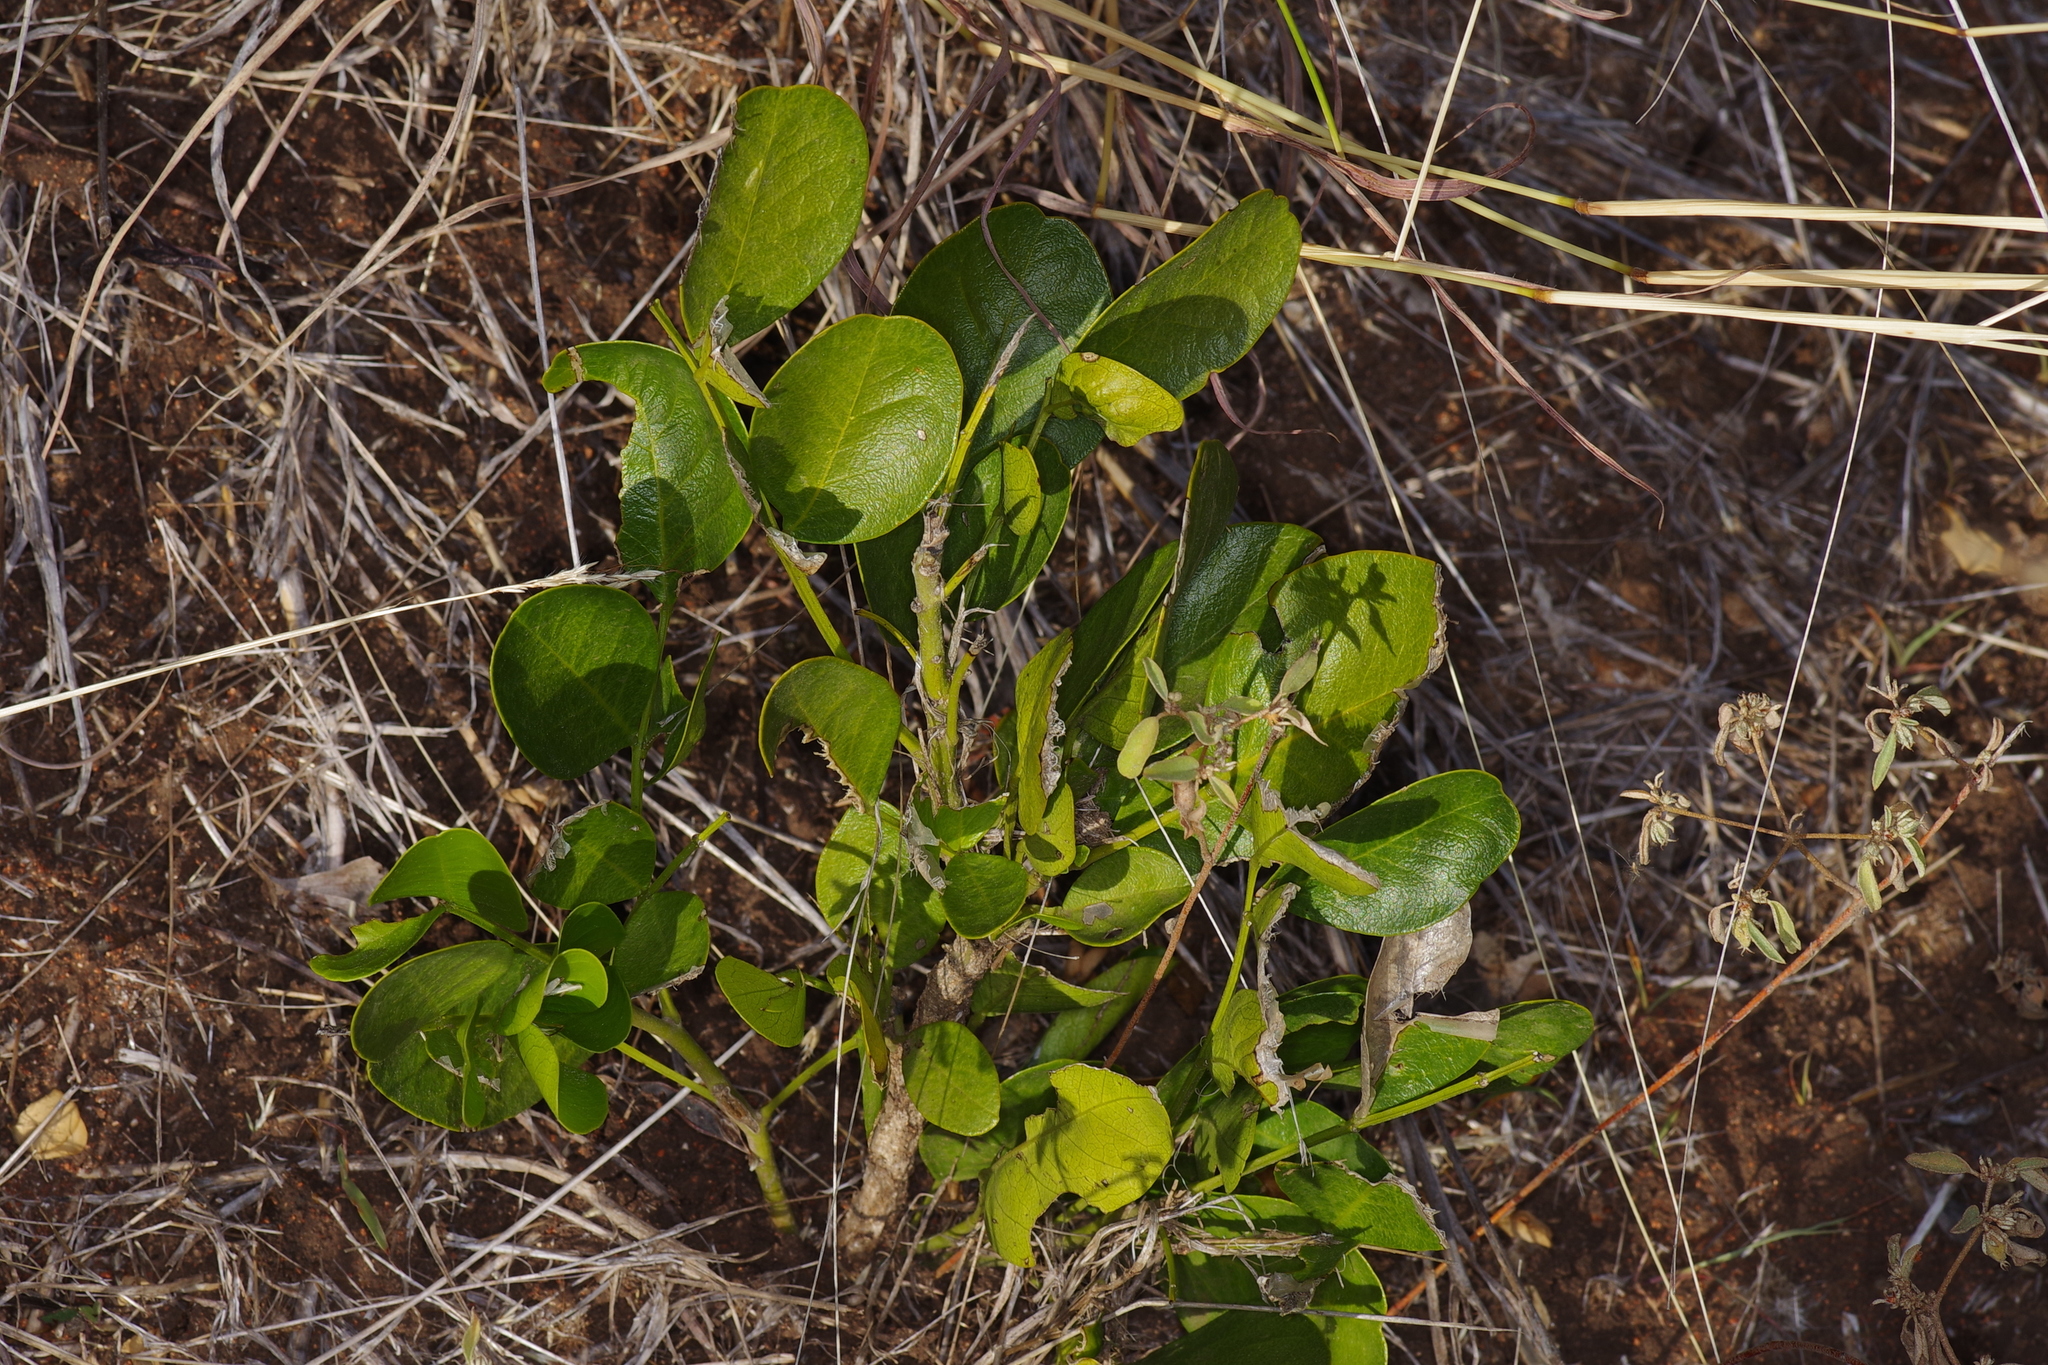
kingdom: Plantae
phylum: Tracheophyta
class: Magnoliopsida
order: Fabales
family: Fabaceae
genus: Dermatophyllum
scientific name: Dermatophyllum secundiflorum
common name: Texas-mountain-laurel
